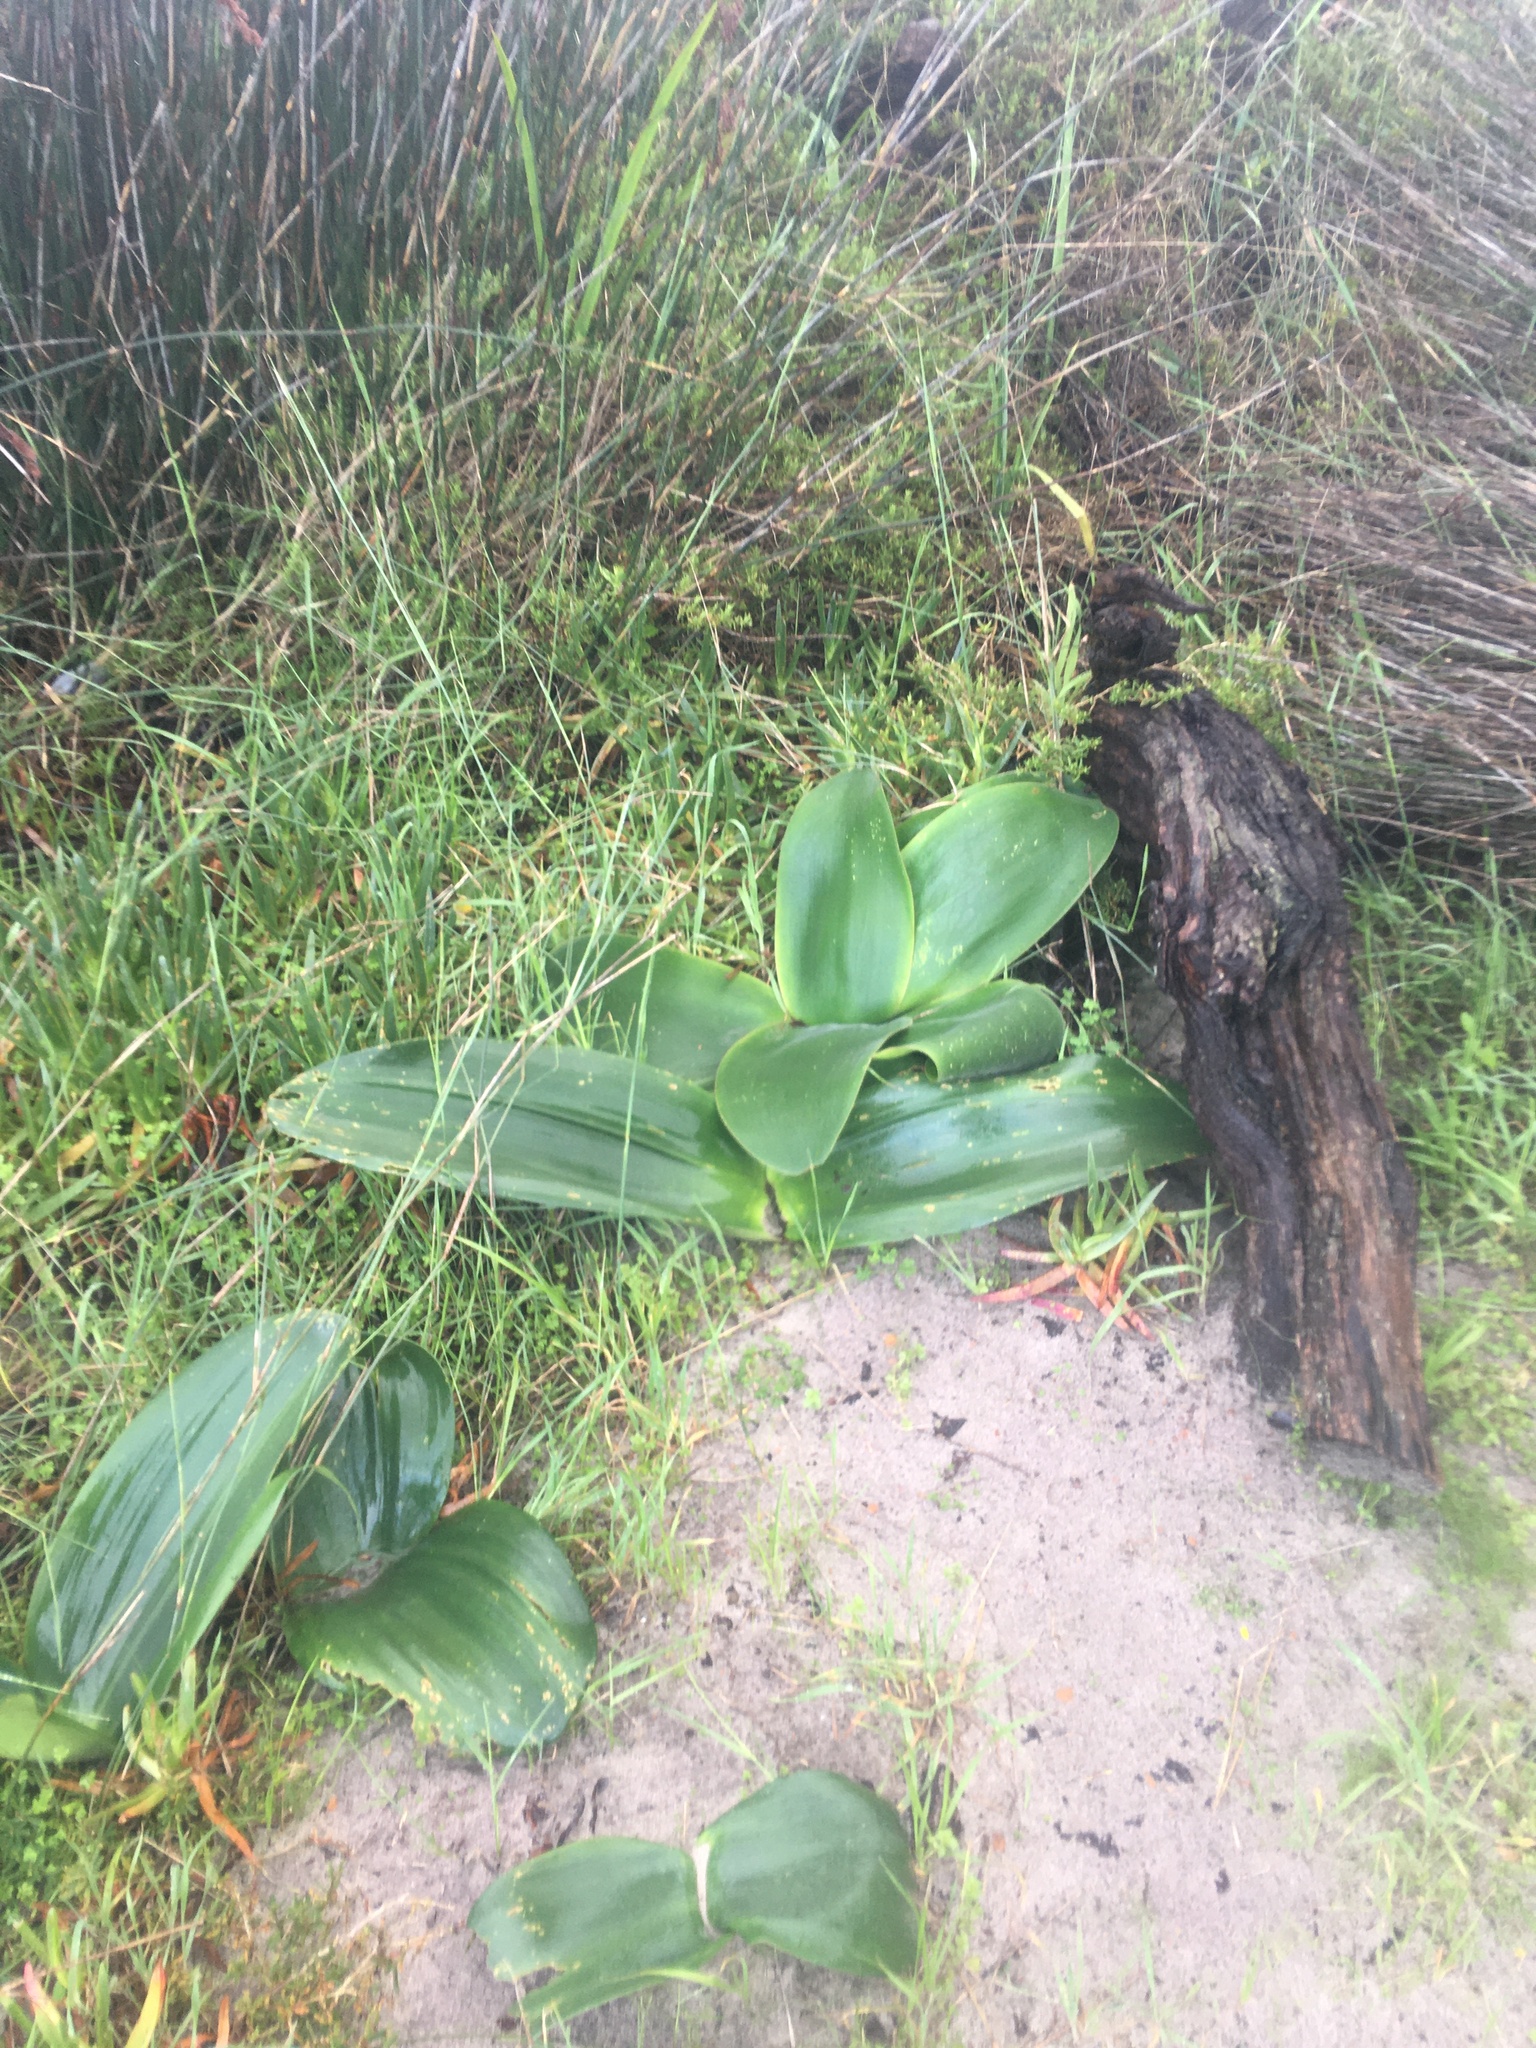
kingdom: Plantae
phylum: Tracheophyta
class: Liliopsida
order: Asparagales
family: Amaryllidaceae
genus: Brunsvigia
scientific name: Brunsvigia orientalis
